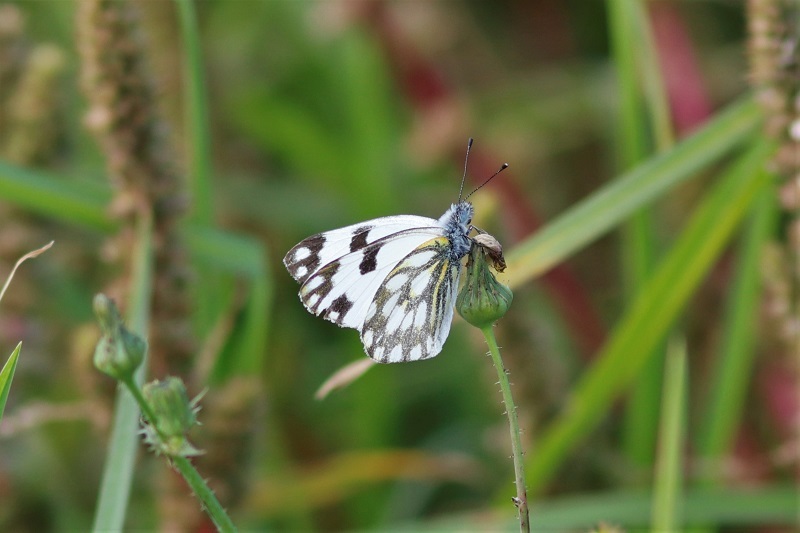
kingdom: Animalia
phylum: Arthropoda
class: Insecta
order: Lepidoptera
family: Pieridae
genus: Pontia
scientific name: Pontia helice
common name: Meadow white
